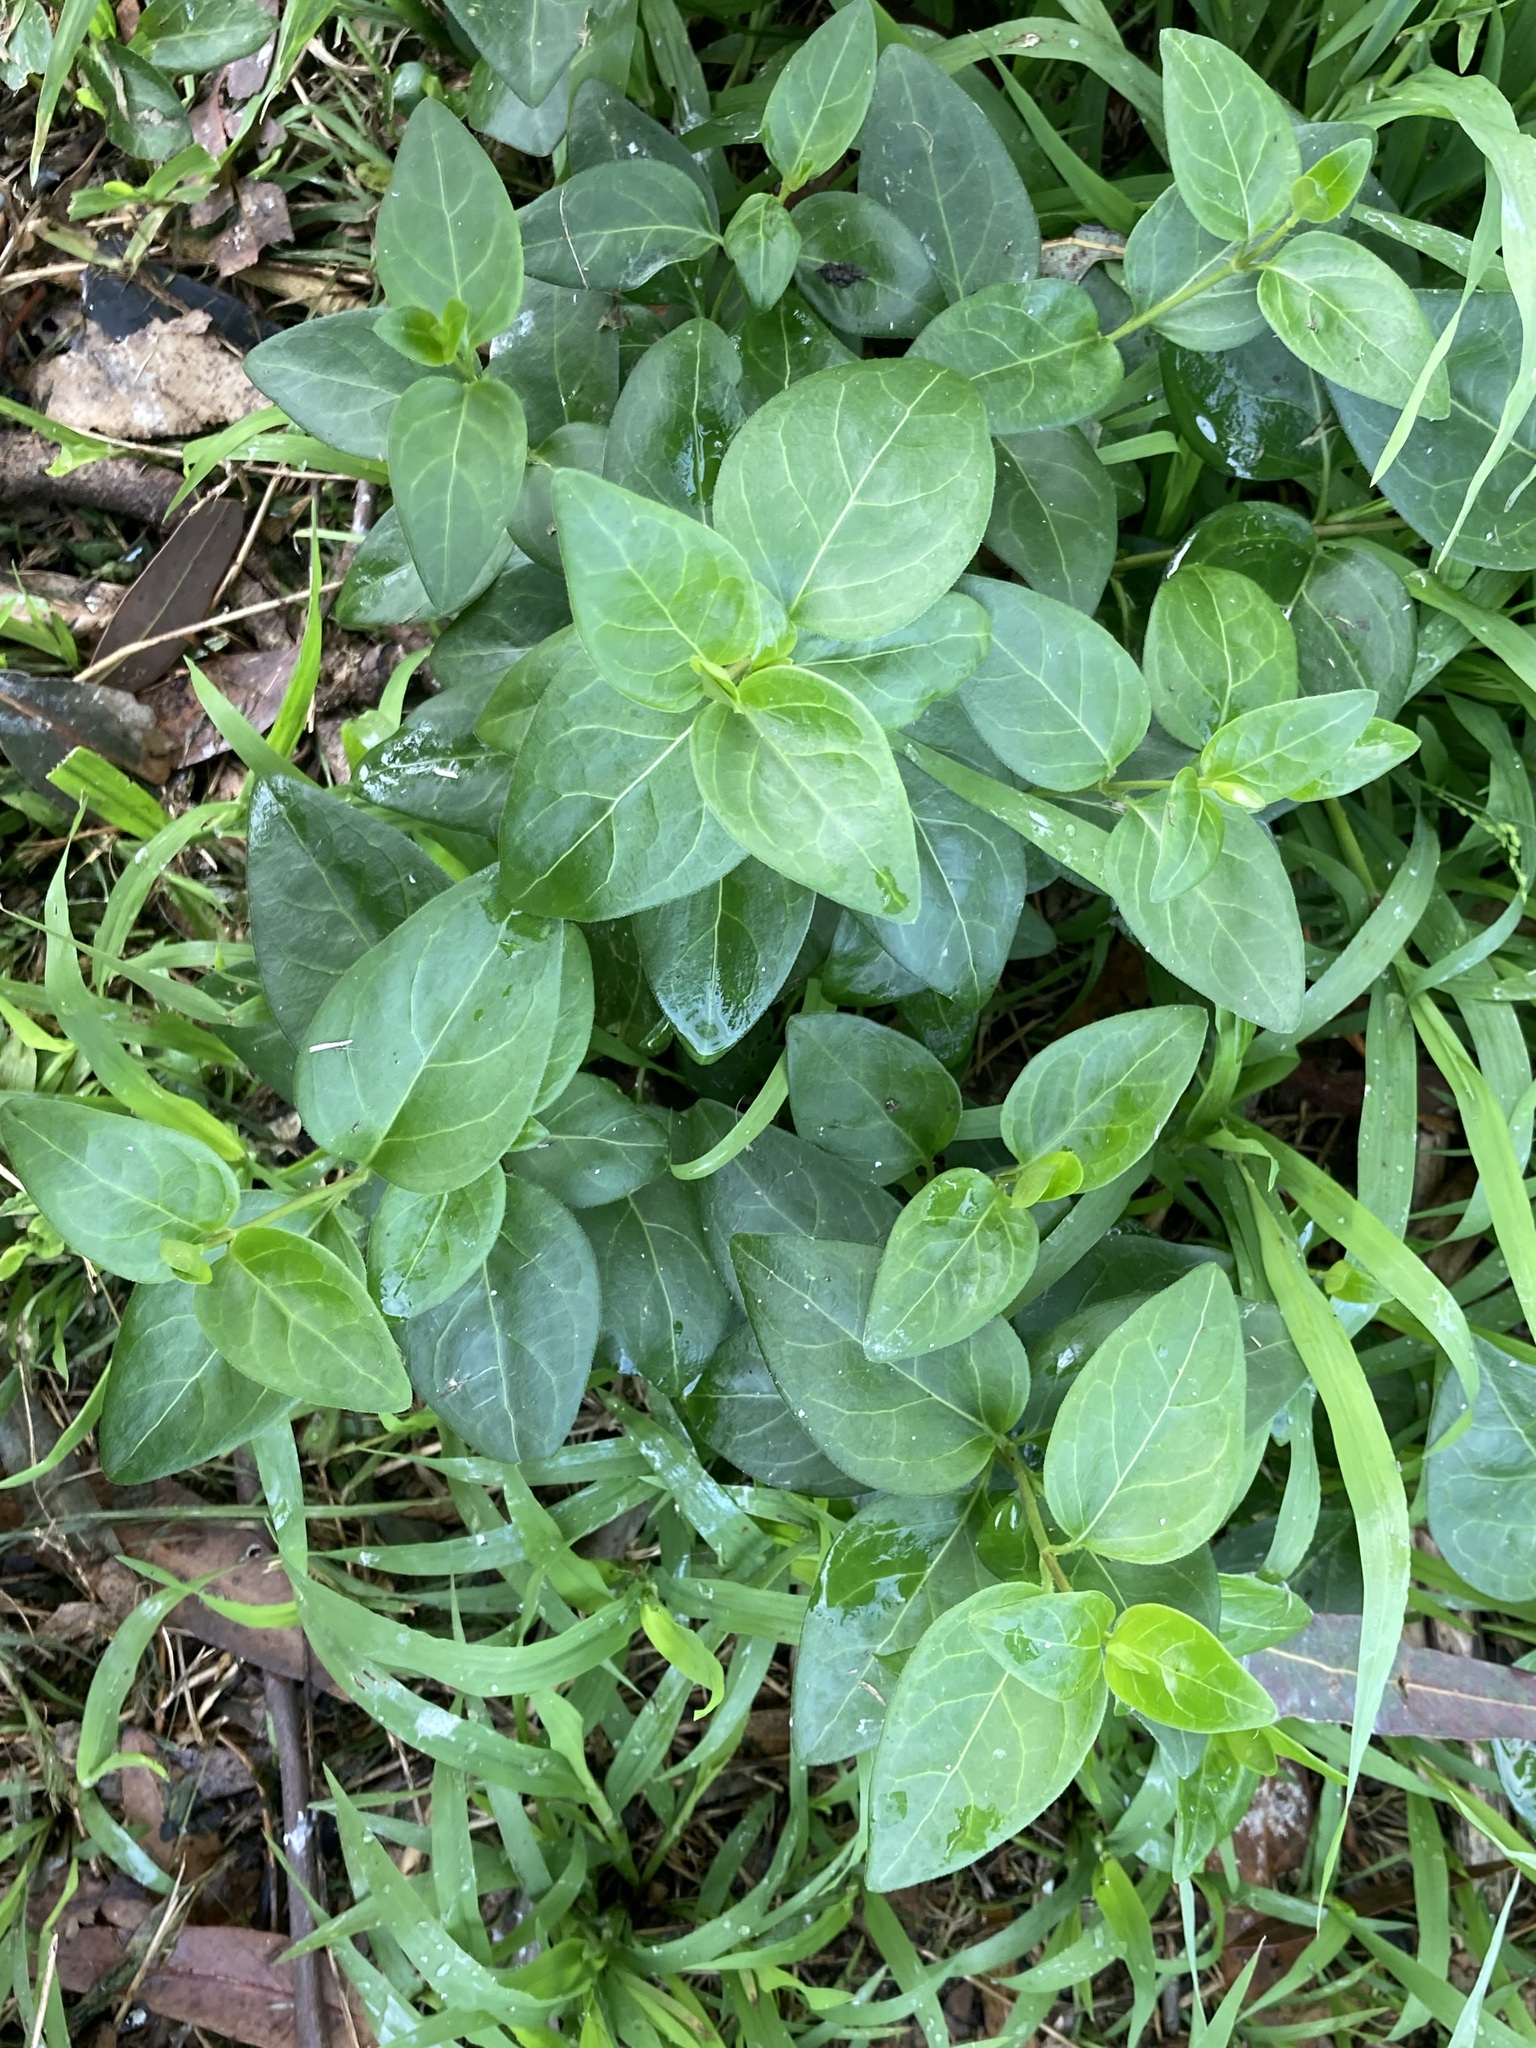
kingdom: Plantae
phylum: Tracheophyta
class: Magnoliopsida
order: Gentianales
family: Apocynaceae
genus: Vinca
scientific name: Vinca major
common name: Greater periwinkle
